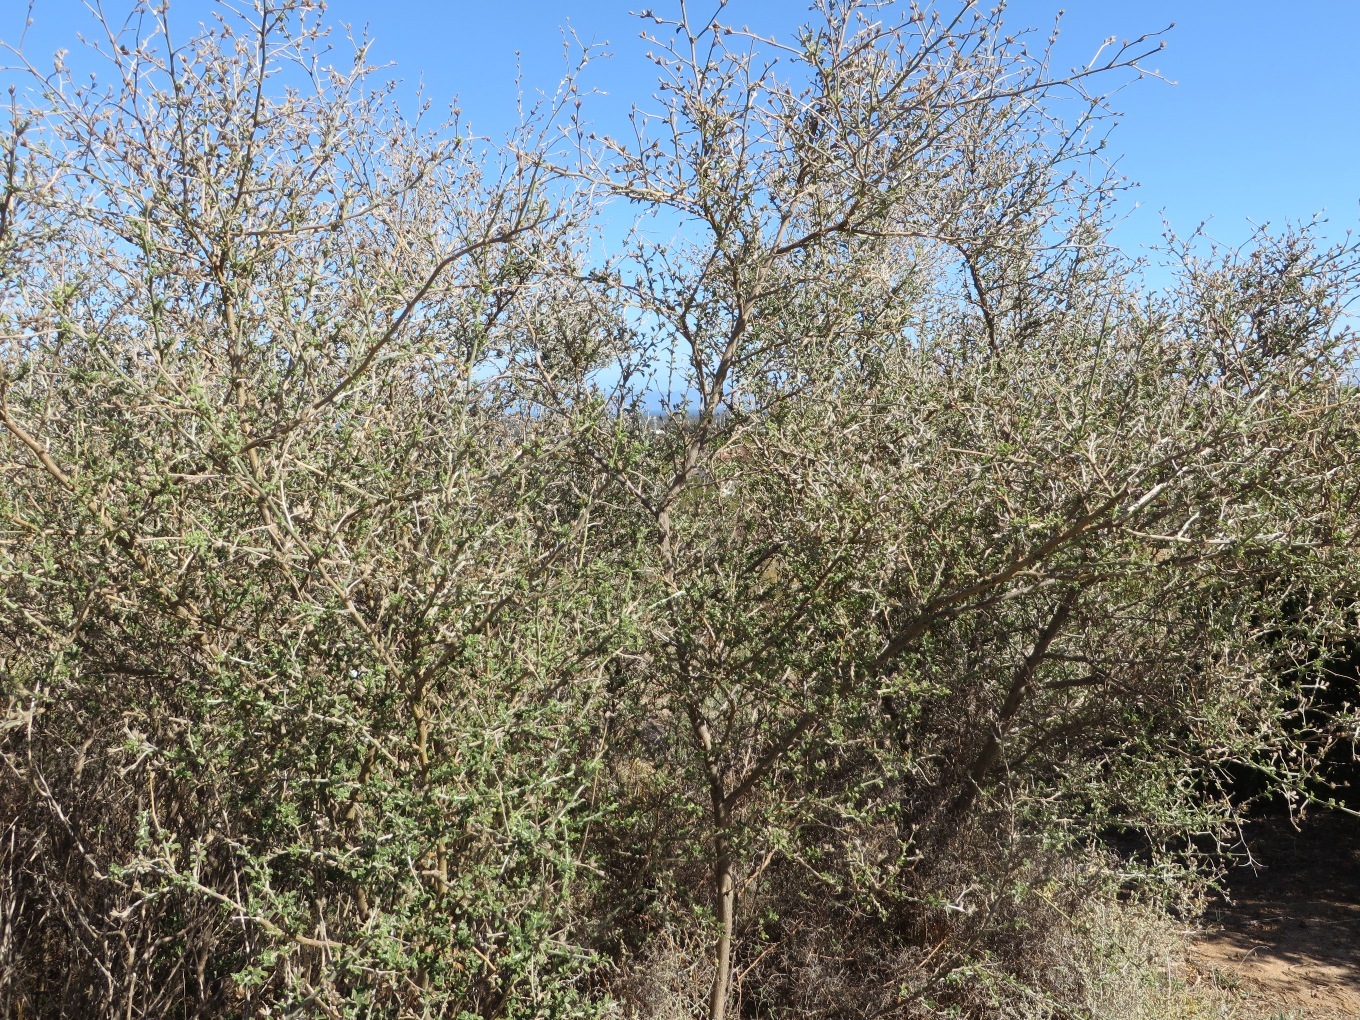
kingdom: Plantae
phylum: Tracheophyta
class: Magnoliopsida
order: Fabales
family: Fabaceae
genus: Psoralea
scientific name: Psoralea hirta
